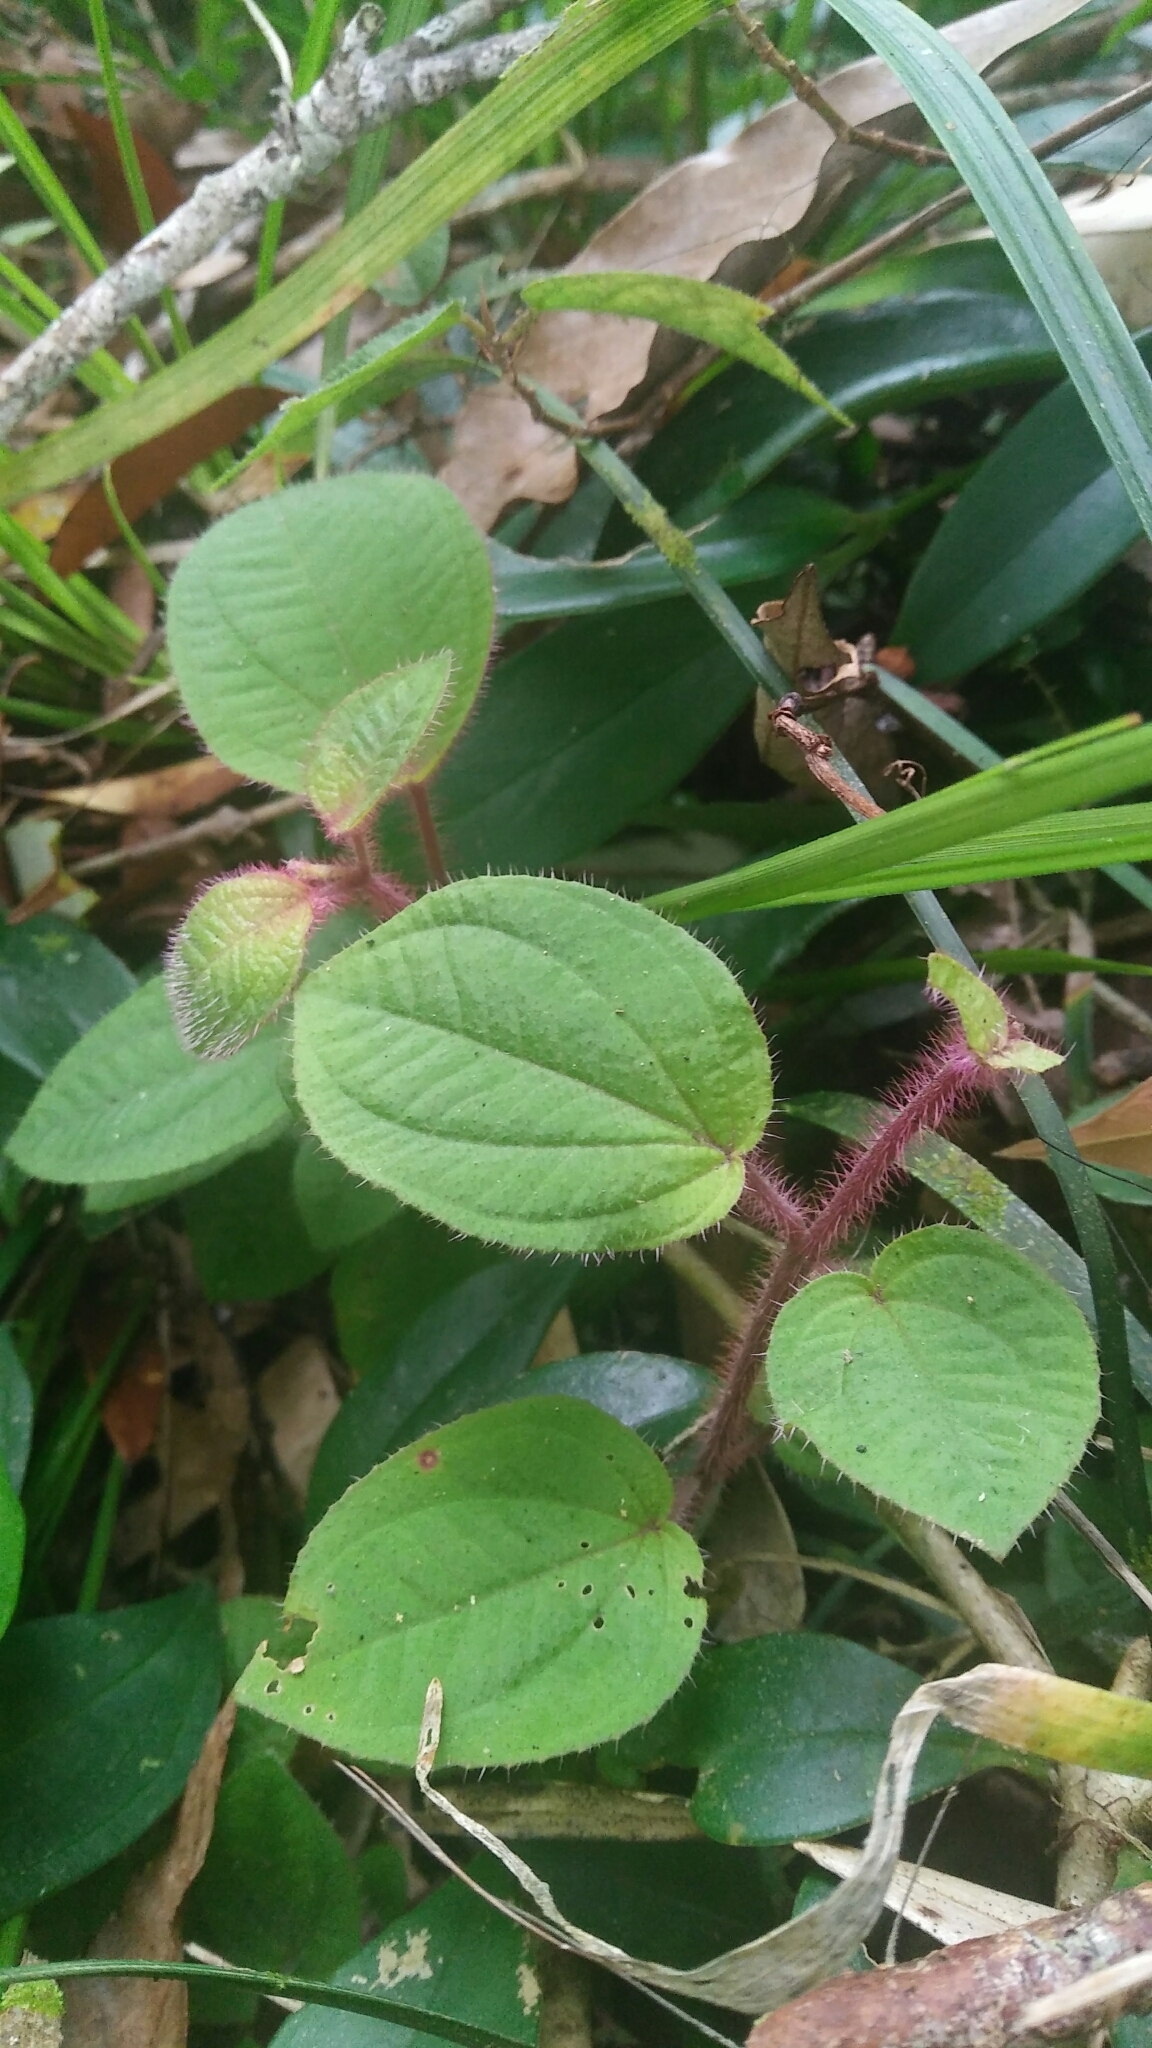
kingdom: Plantae
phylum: Tracheophyta
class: Magnoliopsida
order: Myrtales
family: Melastomataceae
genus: Bredia
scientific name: Bredia dulanica
